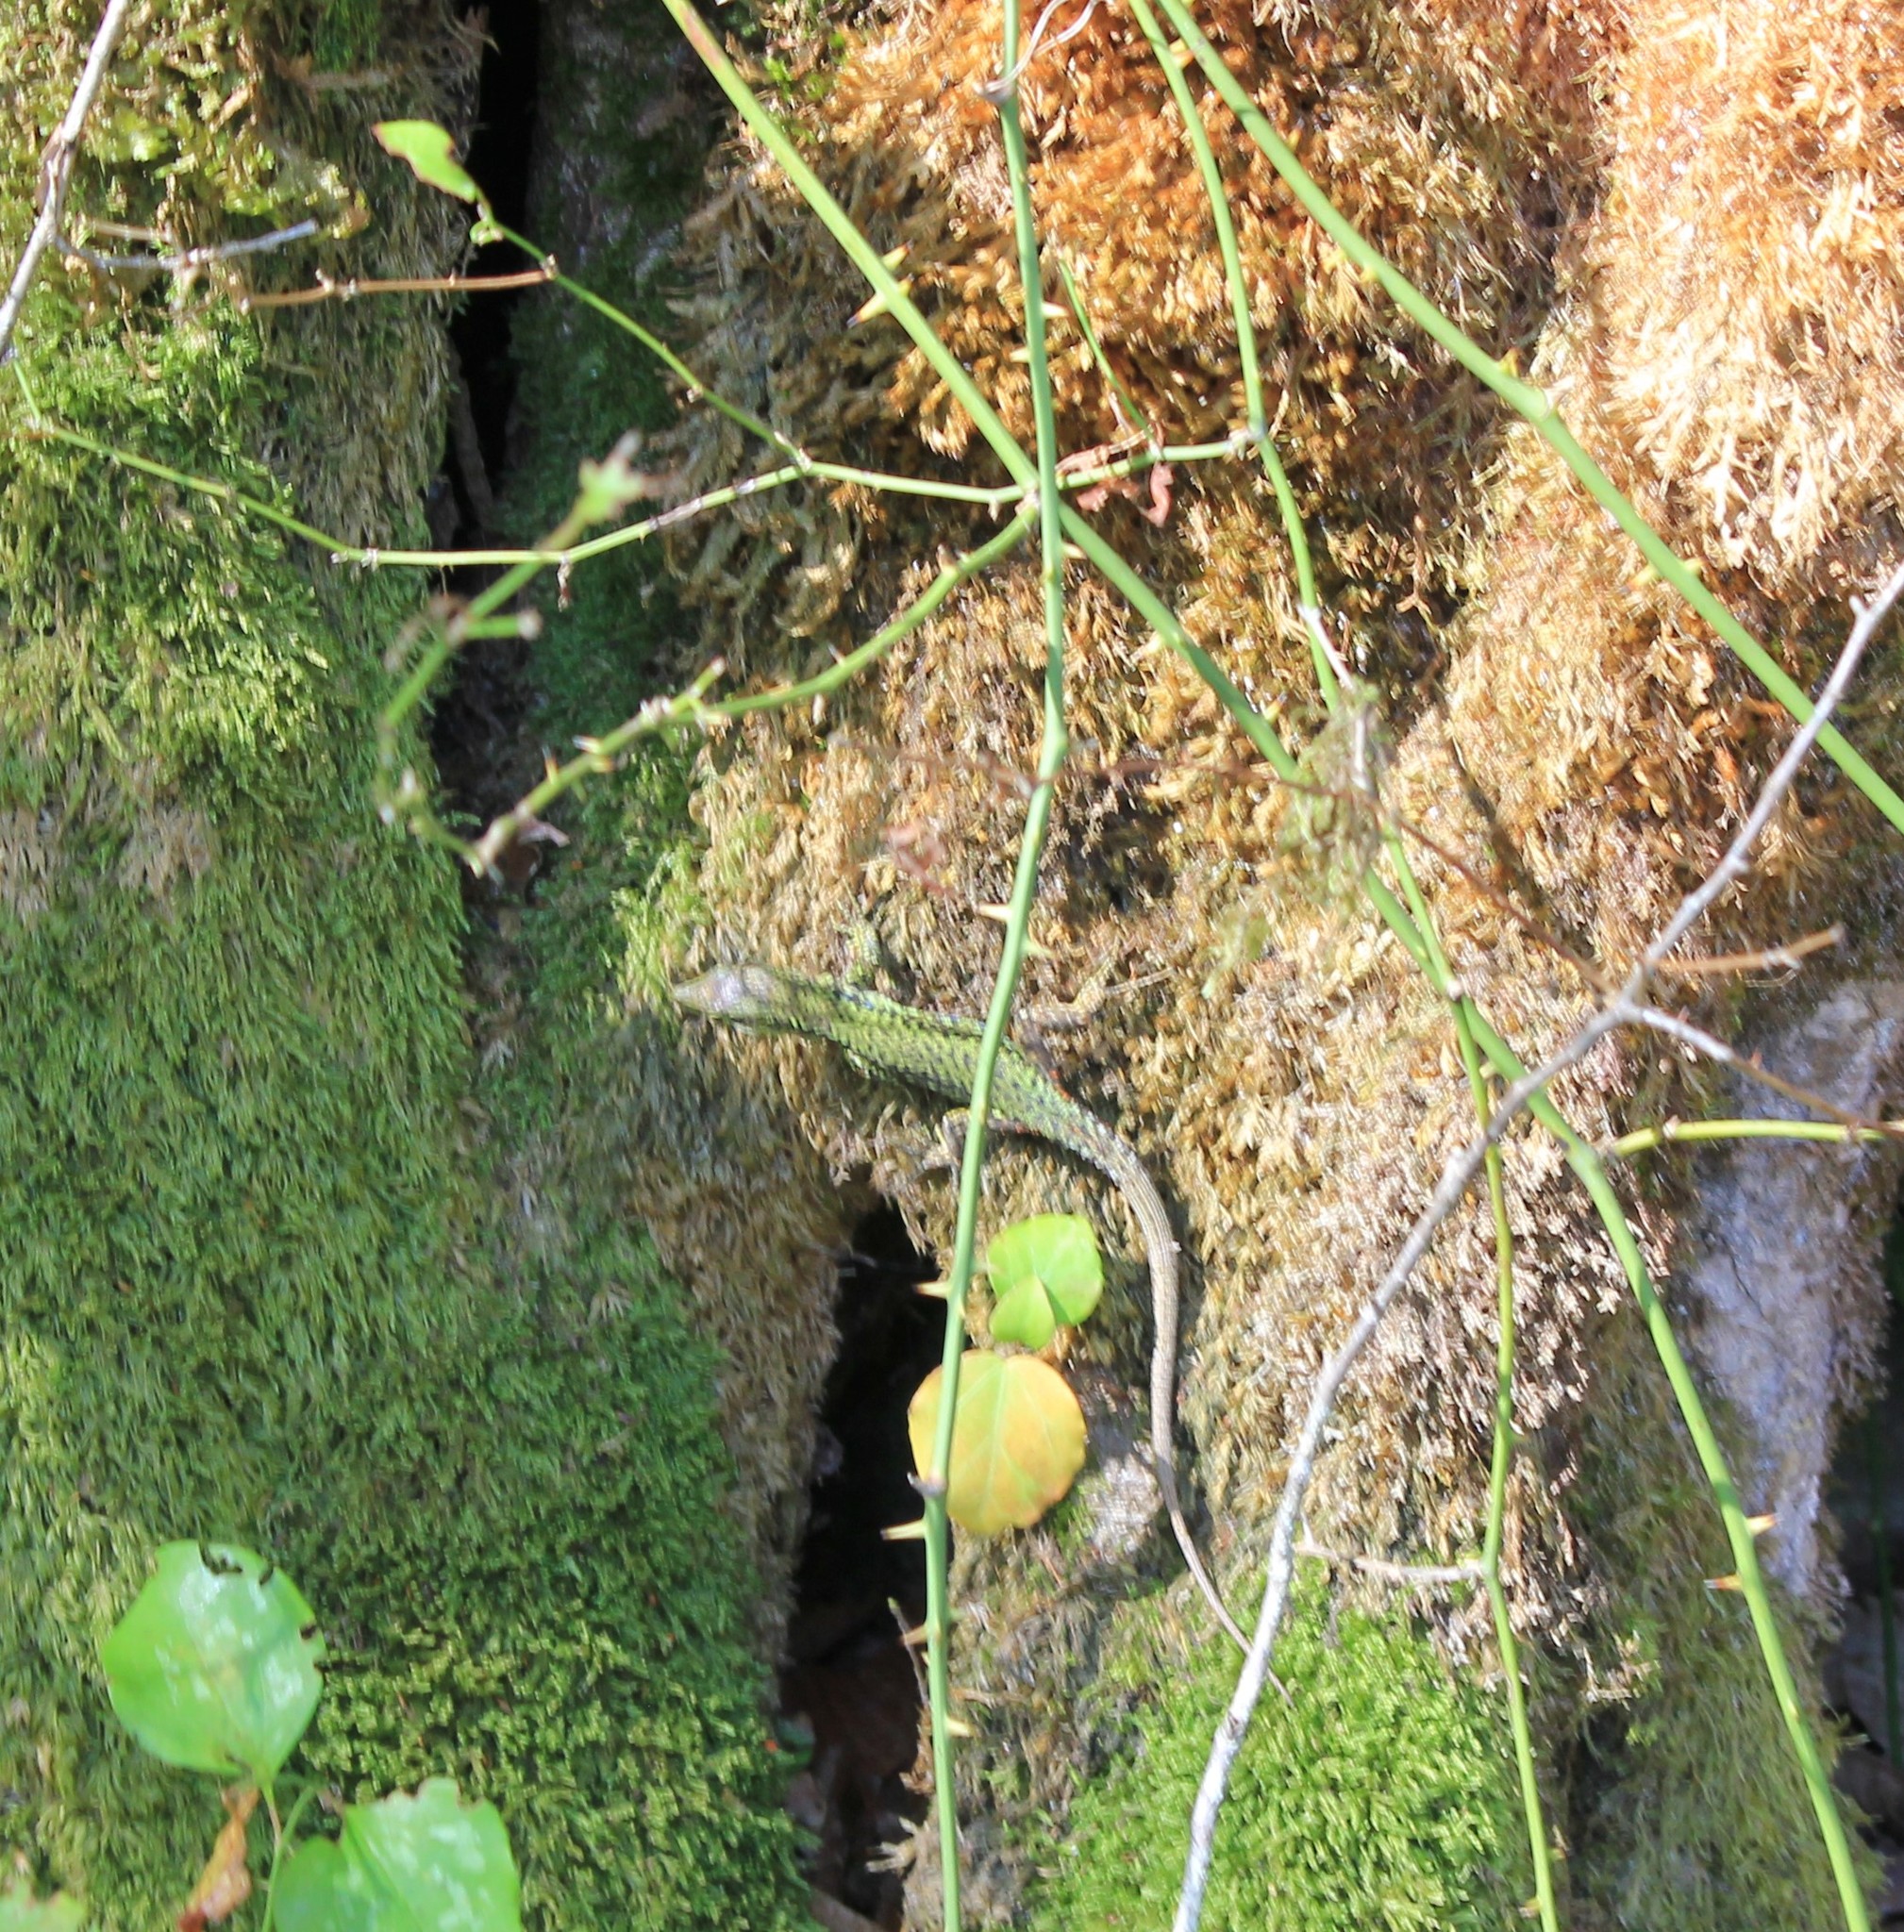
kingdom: Animalia
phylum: Chordata
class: Squamata
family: Lacertidae
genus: Darevskia
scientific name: Darevskia brauneri
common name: Brauner's rock lizard
